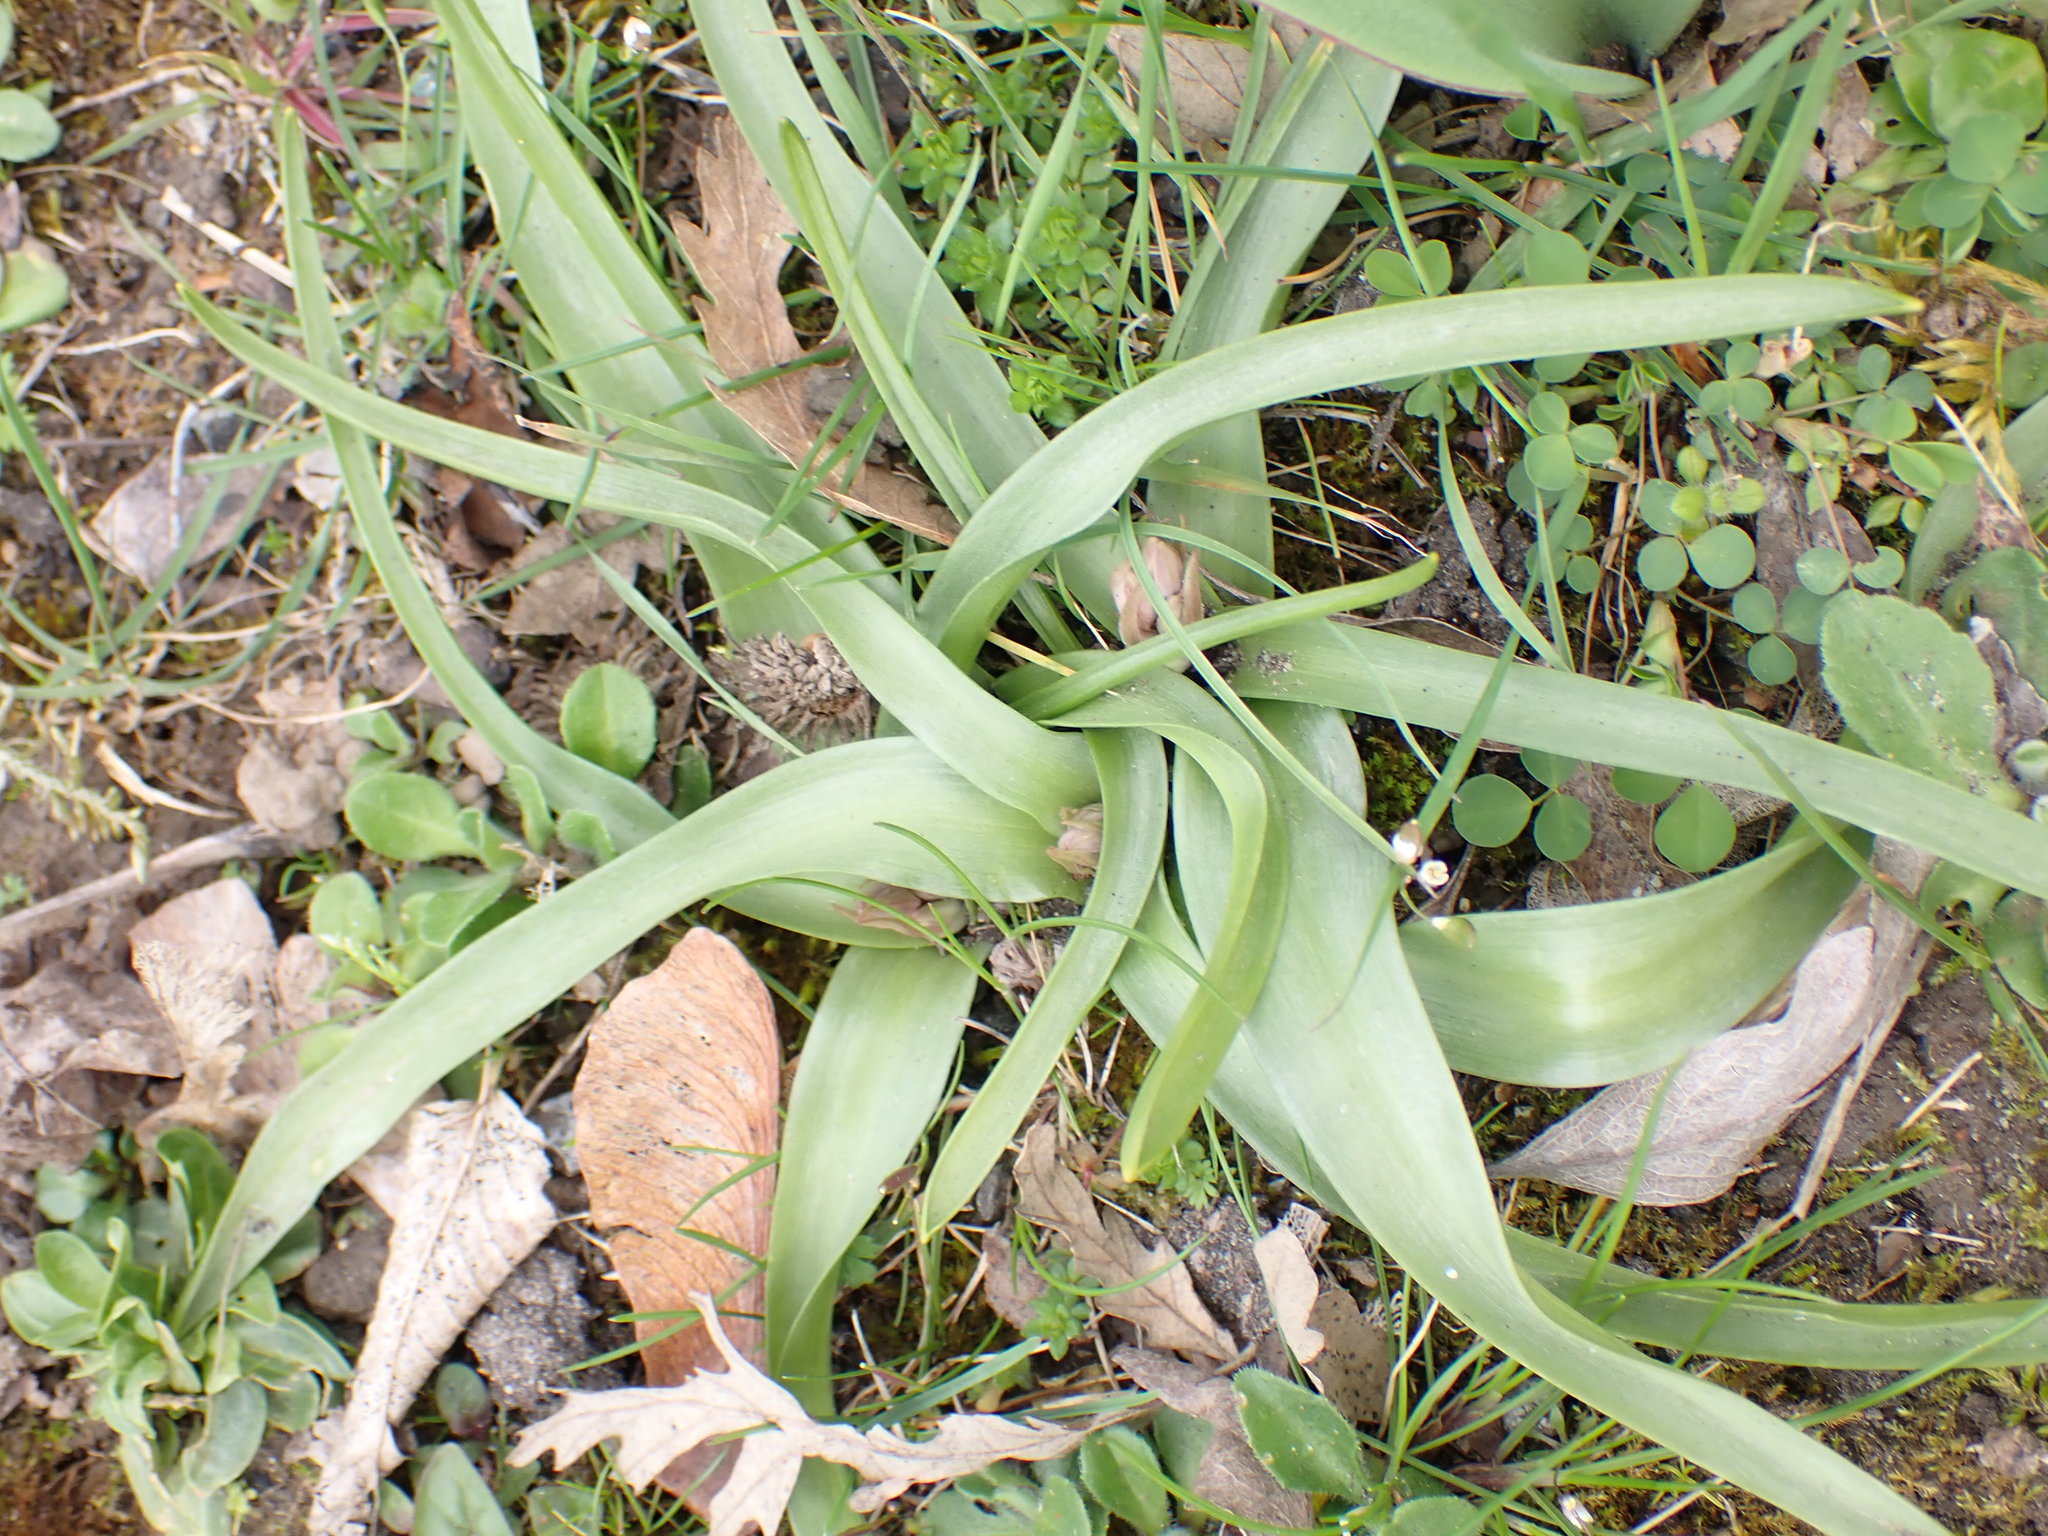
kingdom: Plantae
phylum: Tracheophyta
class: Liliopsida
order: Asparagales
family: Orchidaceae
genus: Anacamptis
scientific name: Anacamptis pyramidalis
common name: Pyramidal orchid
